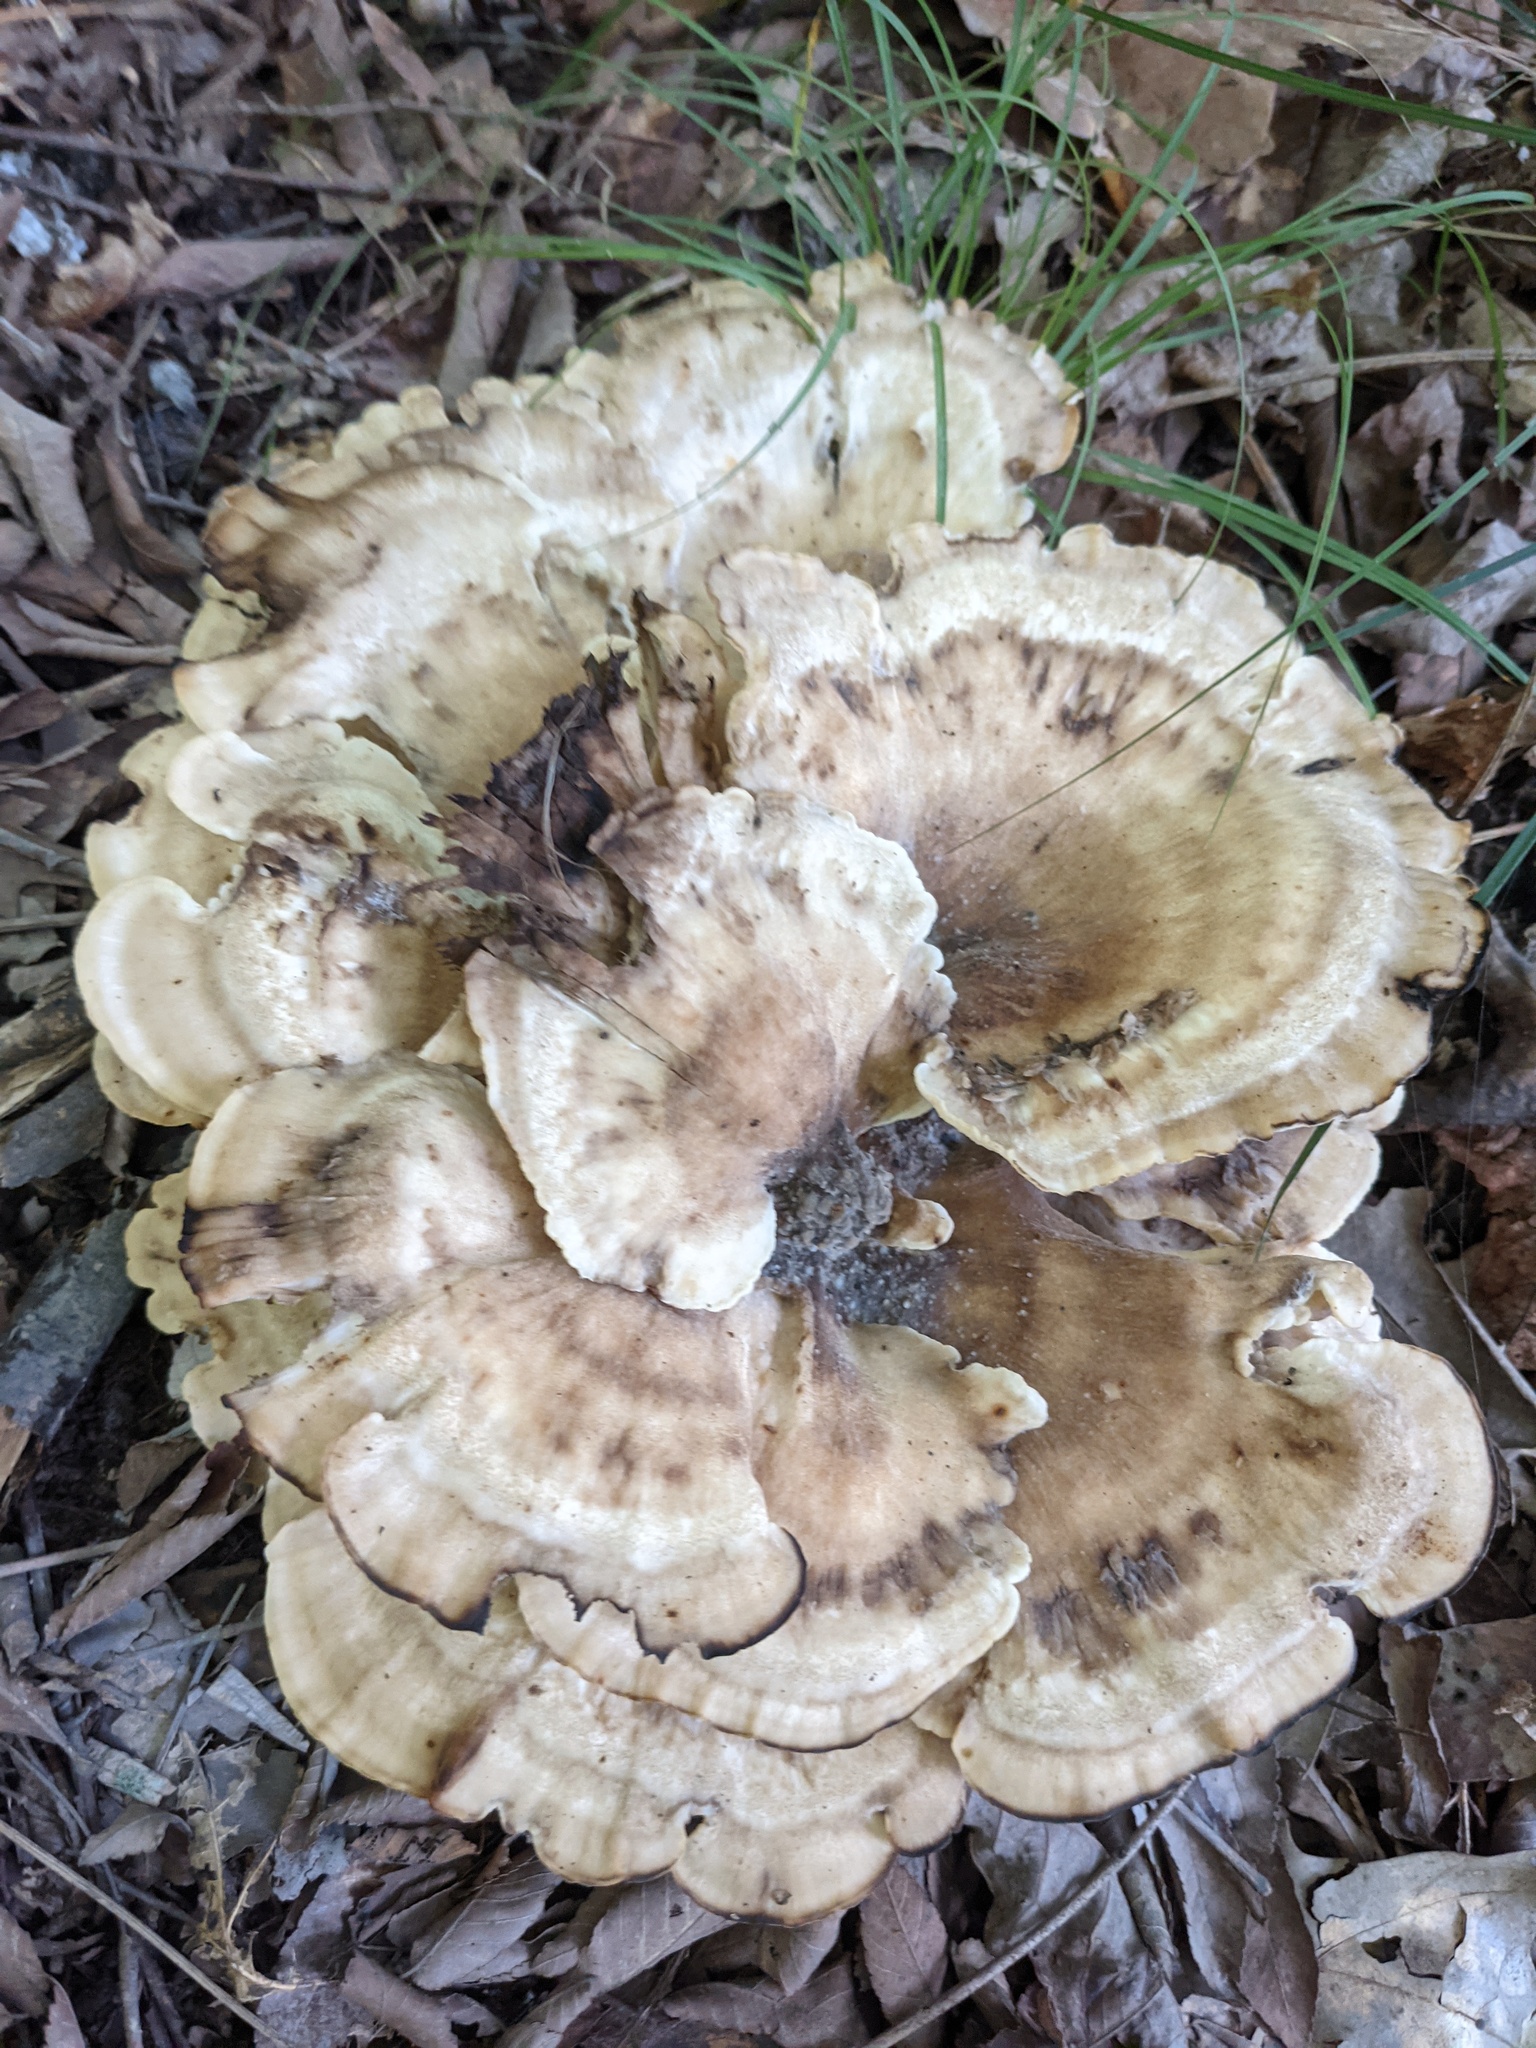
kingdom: Fungi
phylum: Basidiomycota
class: Agaricomycetes
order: Polyporales
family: Meripilaceae
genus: Meripilus
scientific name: Meripilus sumstinei
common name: Black-staining polypore
